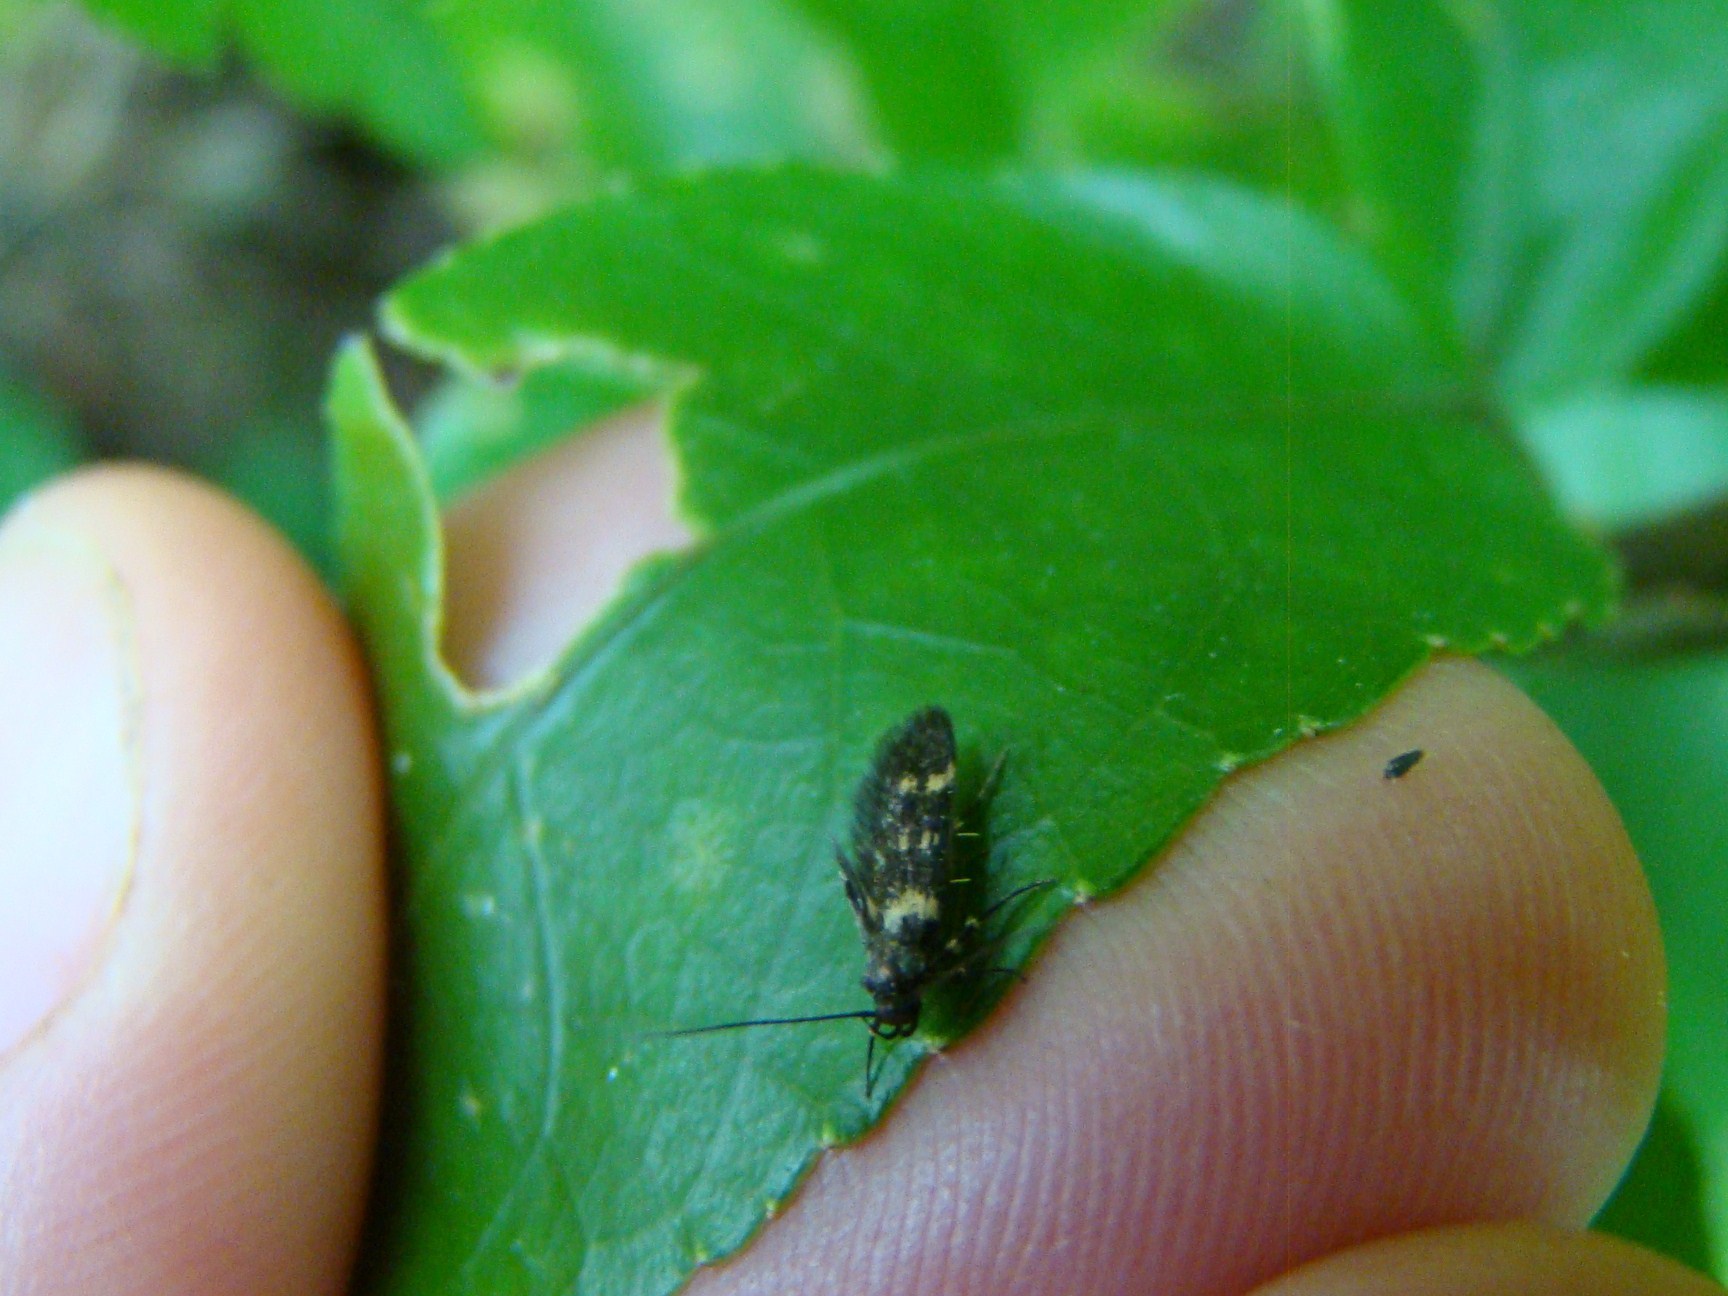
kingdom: Animalia
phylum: Arthropoda
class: Insecta
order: Lepidoptera
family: Oecophoridae
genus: Schiffermuelleria
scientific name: Schiffermuelleria orthophanes
